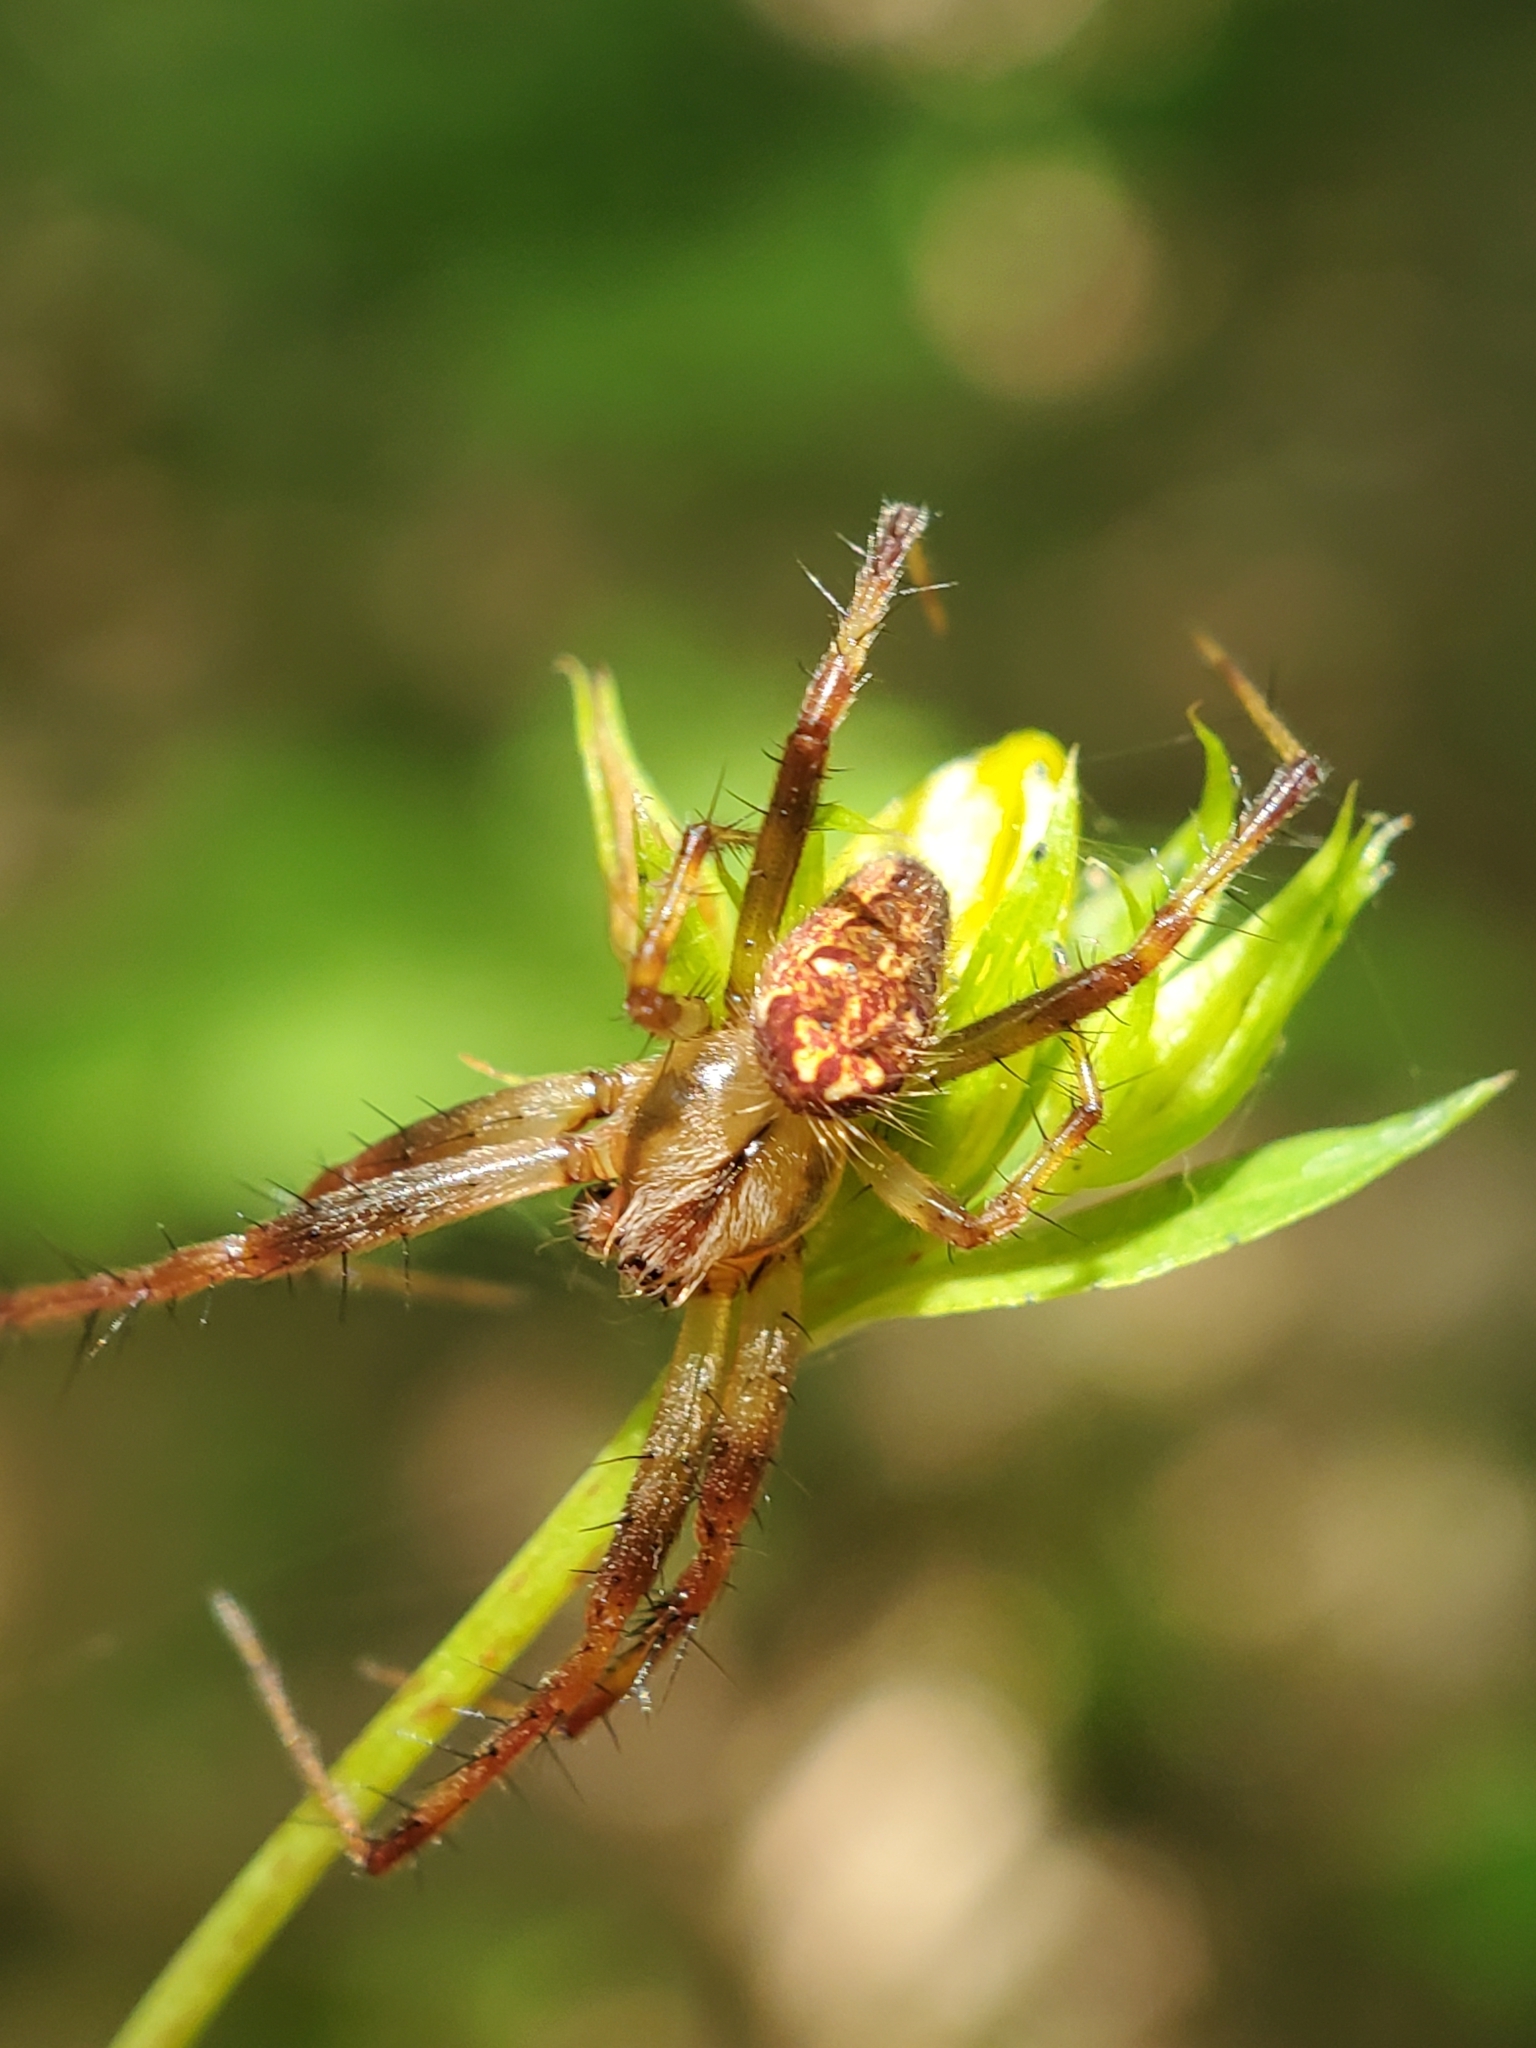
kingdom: Animalia
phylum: Arthropoda
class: Arachnida
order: Araneae
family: Araneidae
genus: Neoscona
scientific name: Neoscona arabesca
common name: Orb weavers
